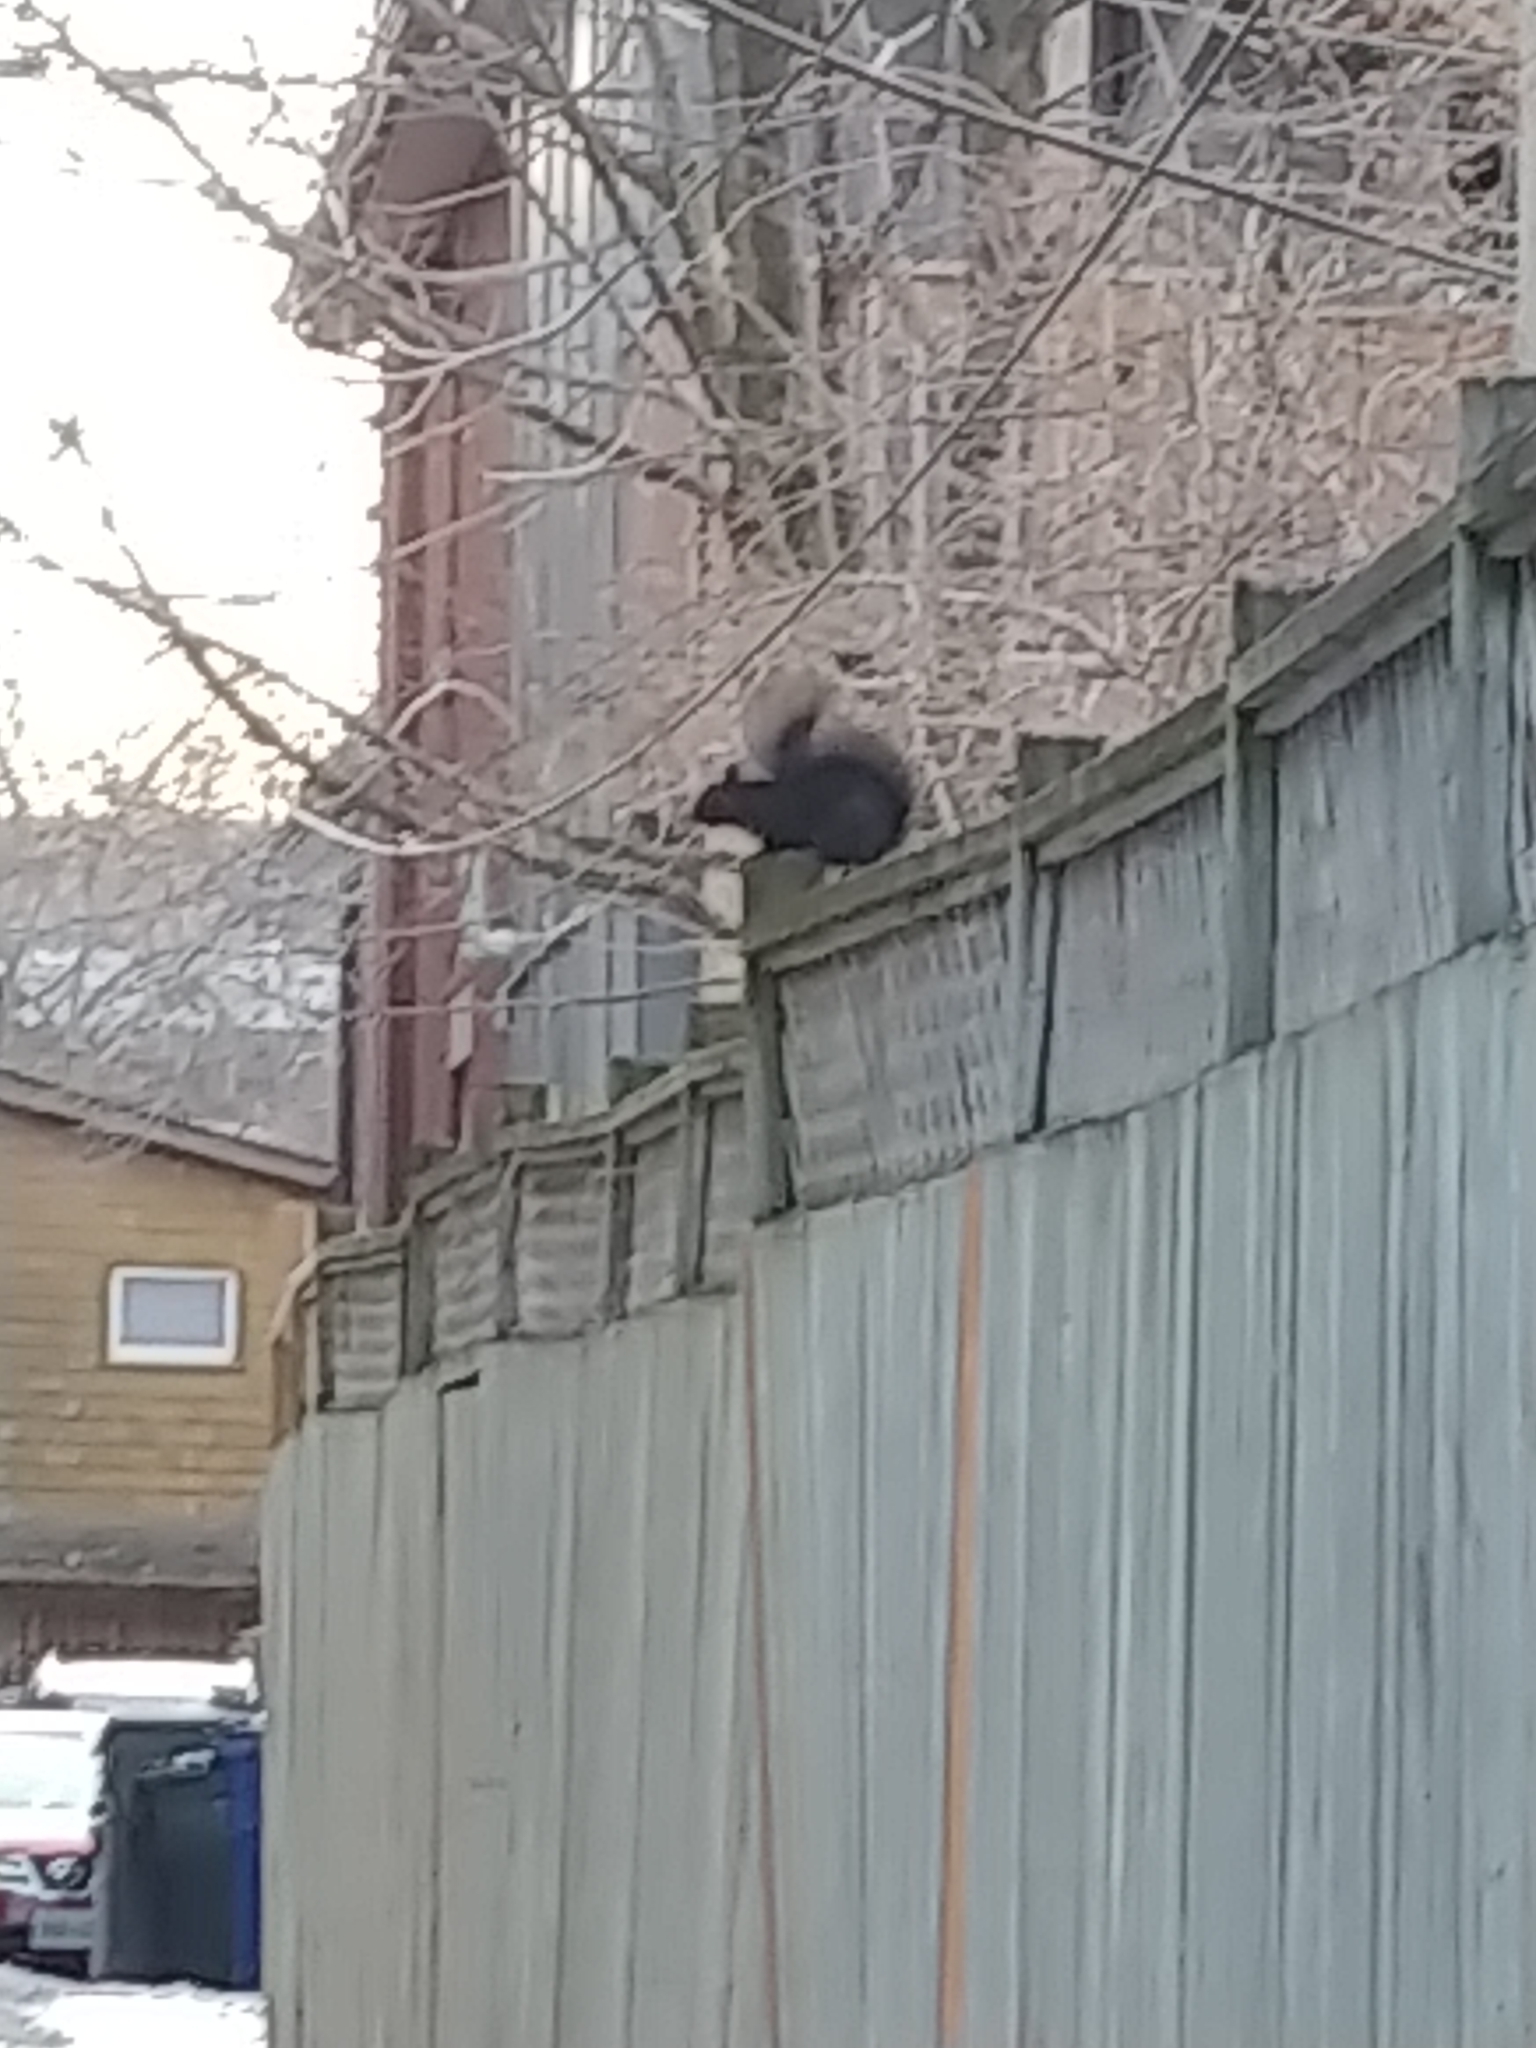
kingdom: Animalia
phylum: Chordata
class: Mammalia
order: Rodentia
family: Sciuridae
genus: Sciurus
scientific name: Sciurus carolinensis
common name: Eastern gray squirrel
